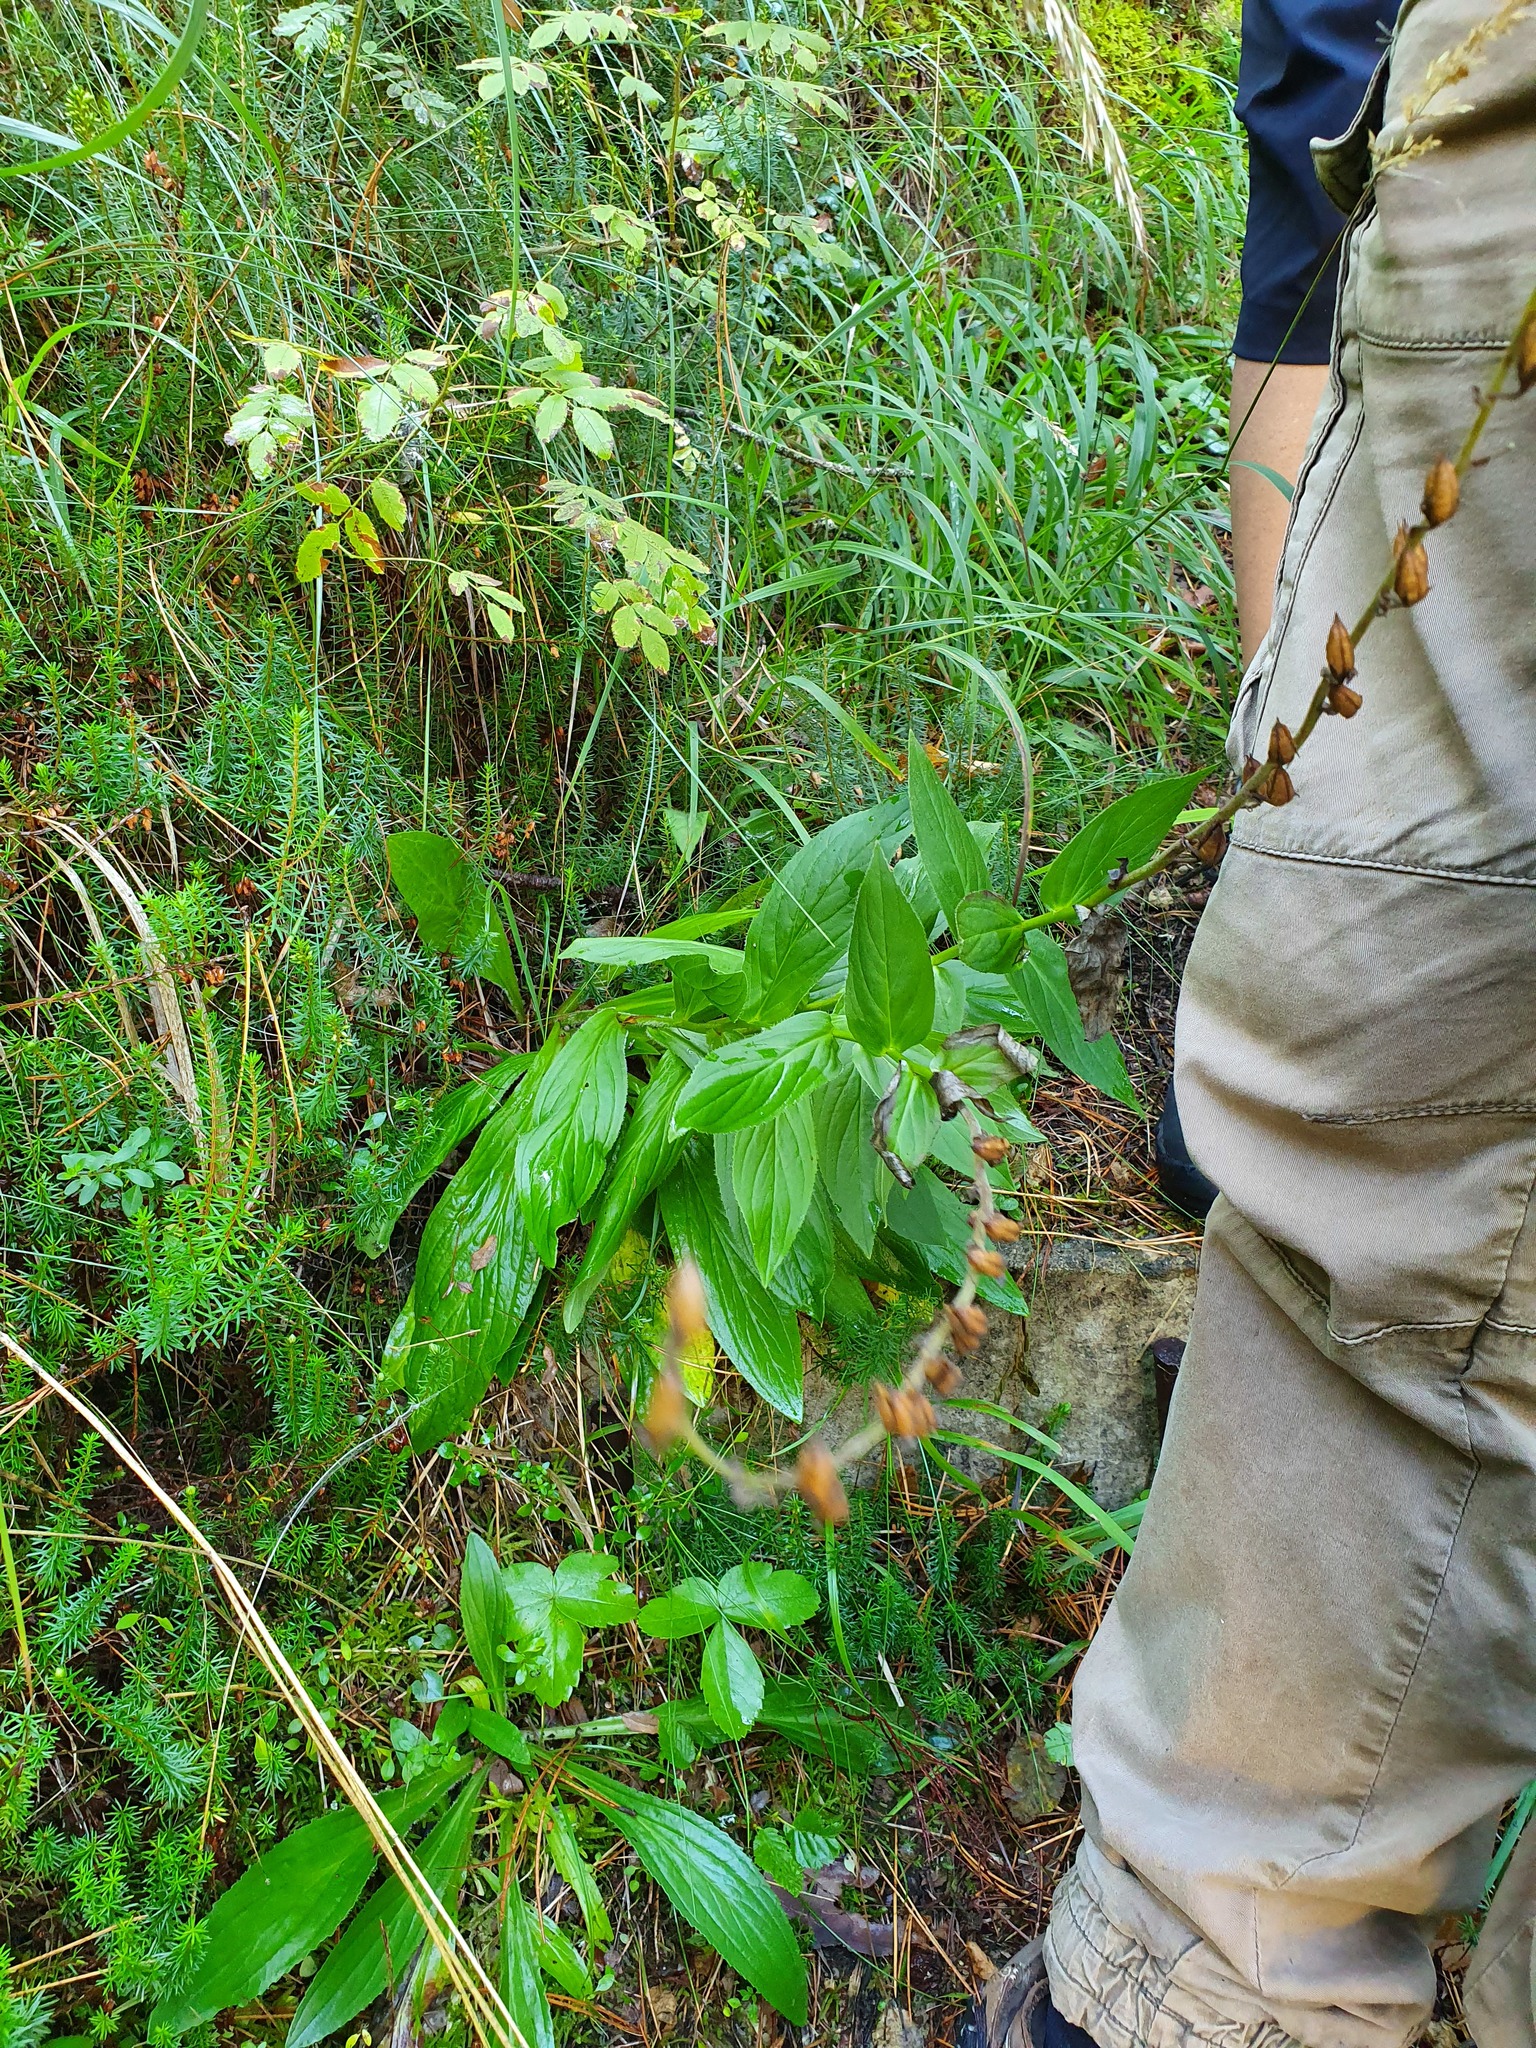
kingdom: Plantae
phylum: Tracheophyta
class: Magnoliopsida
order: Lamiales
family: Plantaginaceae
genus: Digitalis
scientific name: Digitalis grandiflora
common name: Yellow foxglove
